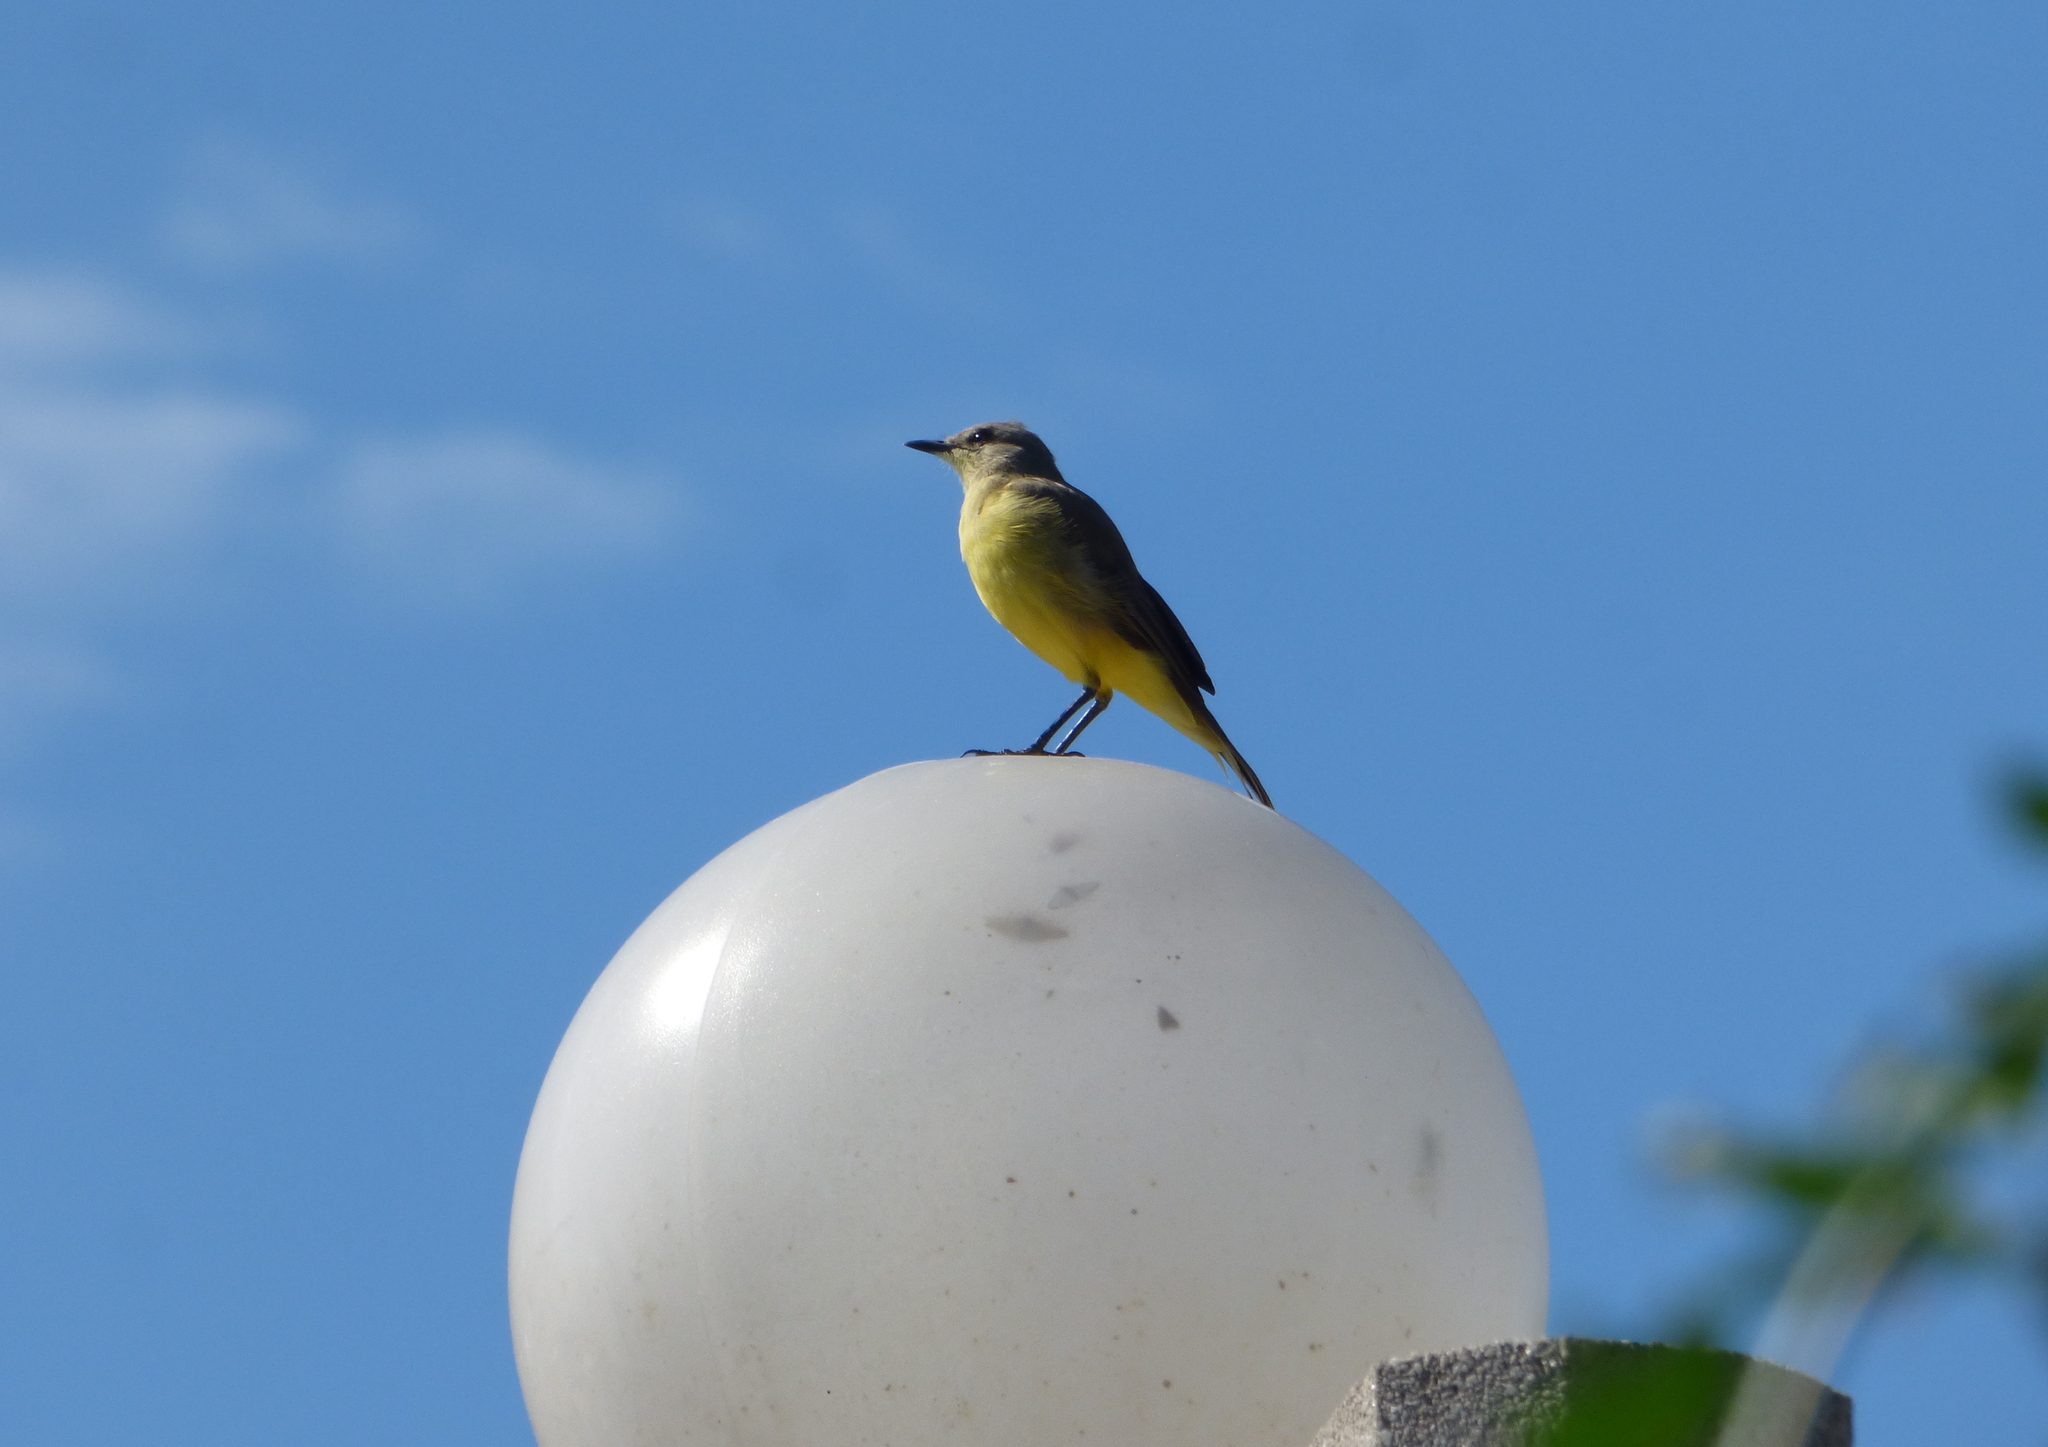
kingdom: Animalia
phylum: Chordata
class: Aves
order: Passeriformes
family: Tyrannidae
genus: Machetornis
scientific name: Machetornis rixosa
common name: Cattle tyrant
